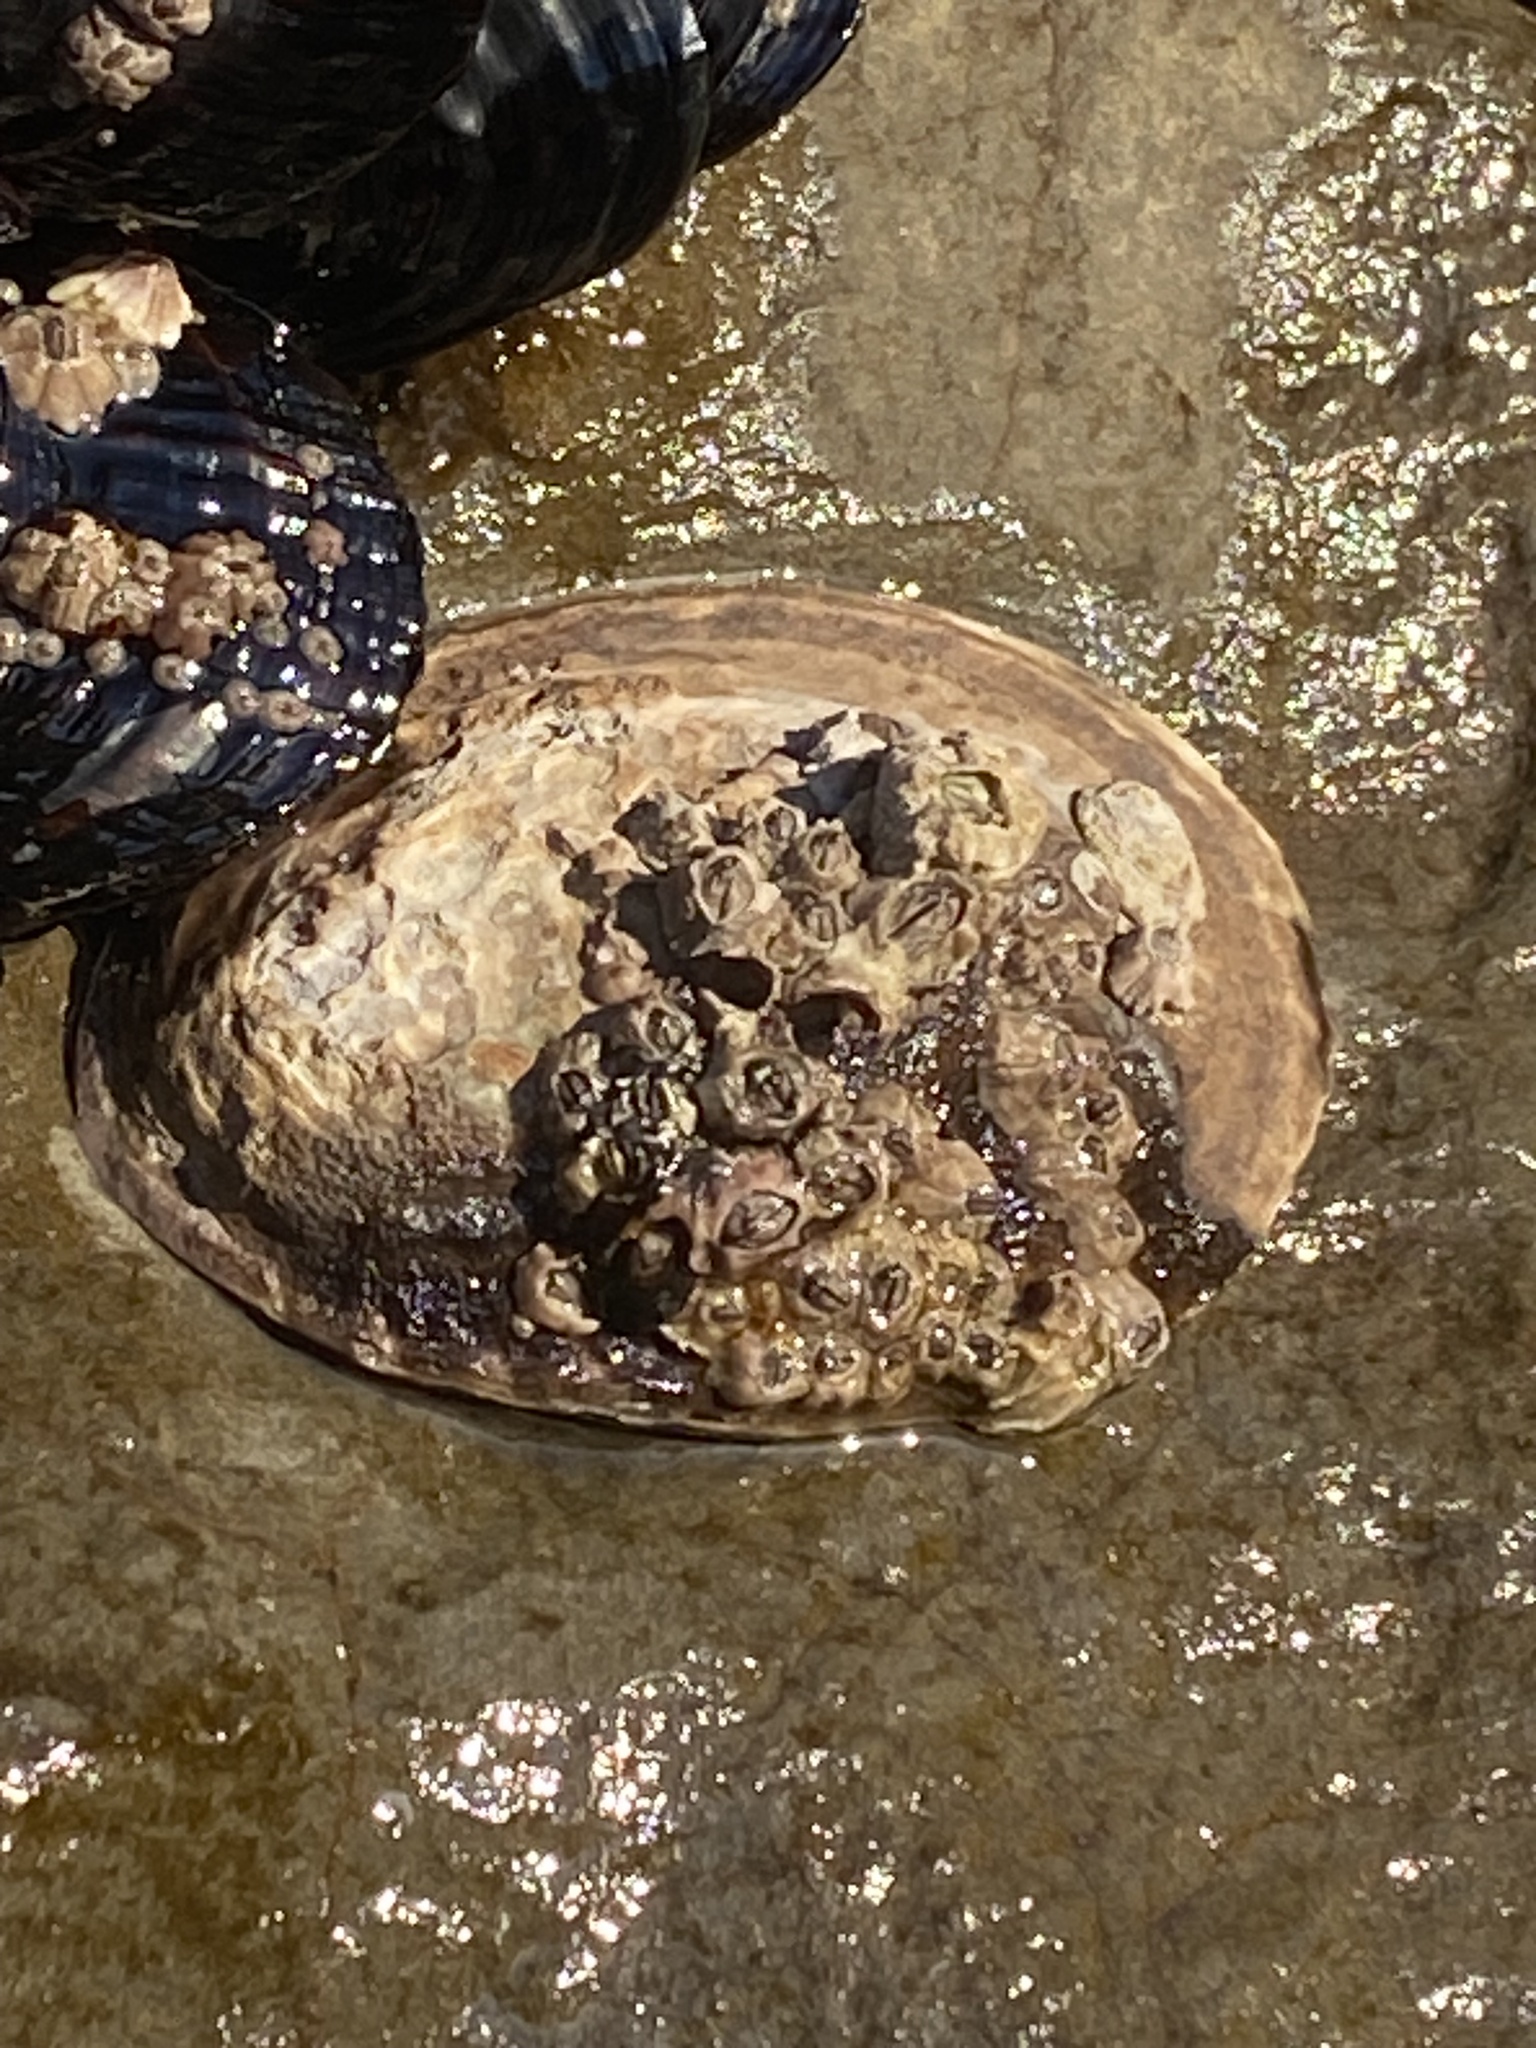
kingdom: Animalia
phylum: Mollusca
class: Gastropoda
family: Lottiidae
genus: Lottia
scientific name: Lottia gigantea
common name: Owl limpet
